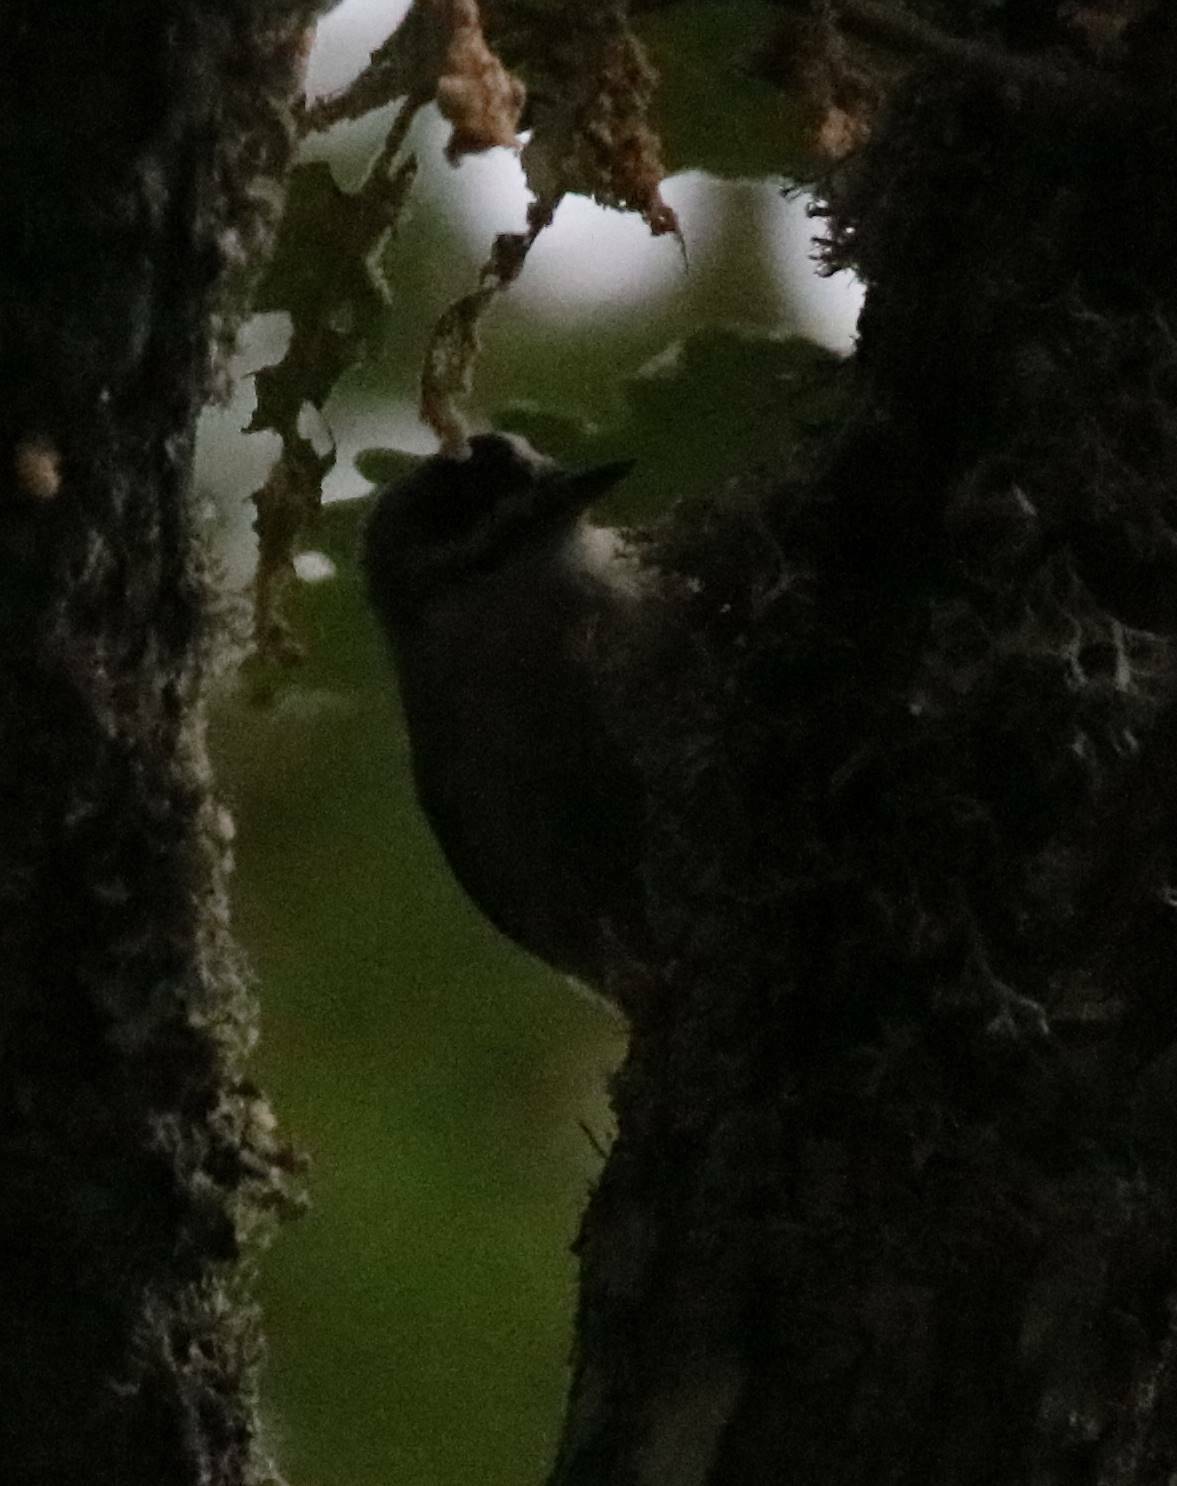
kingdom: Animalia
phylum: Chordata
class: Aves
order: Passeriformes
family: Sittidae
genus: Sitta
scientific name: Sitta ledanti
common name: Algerian nuthatch
